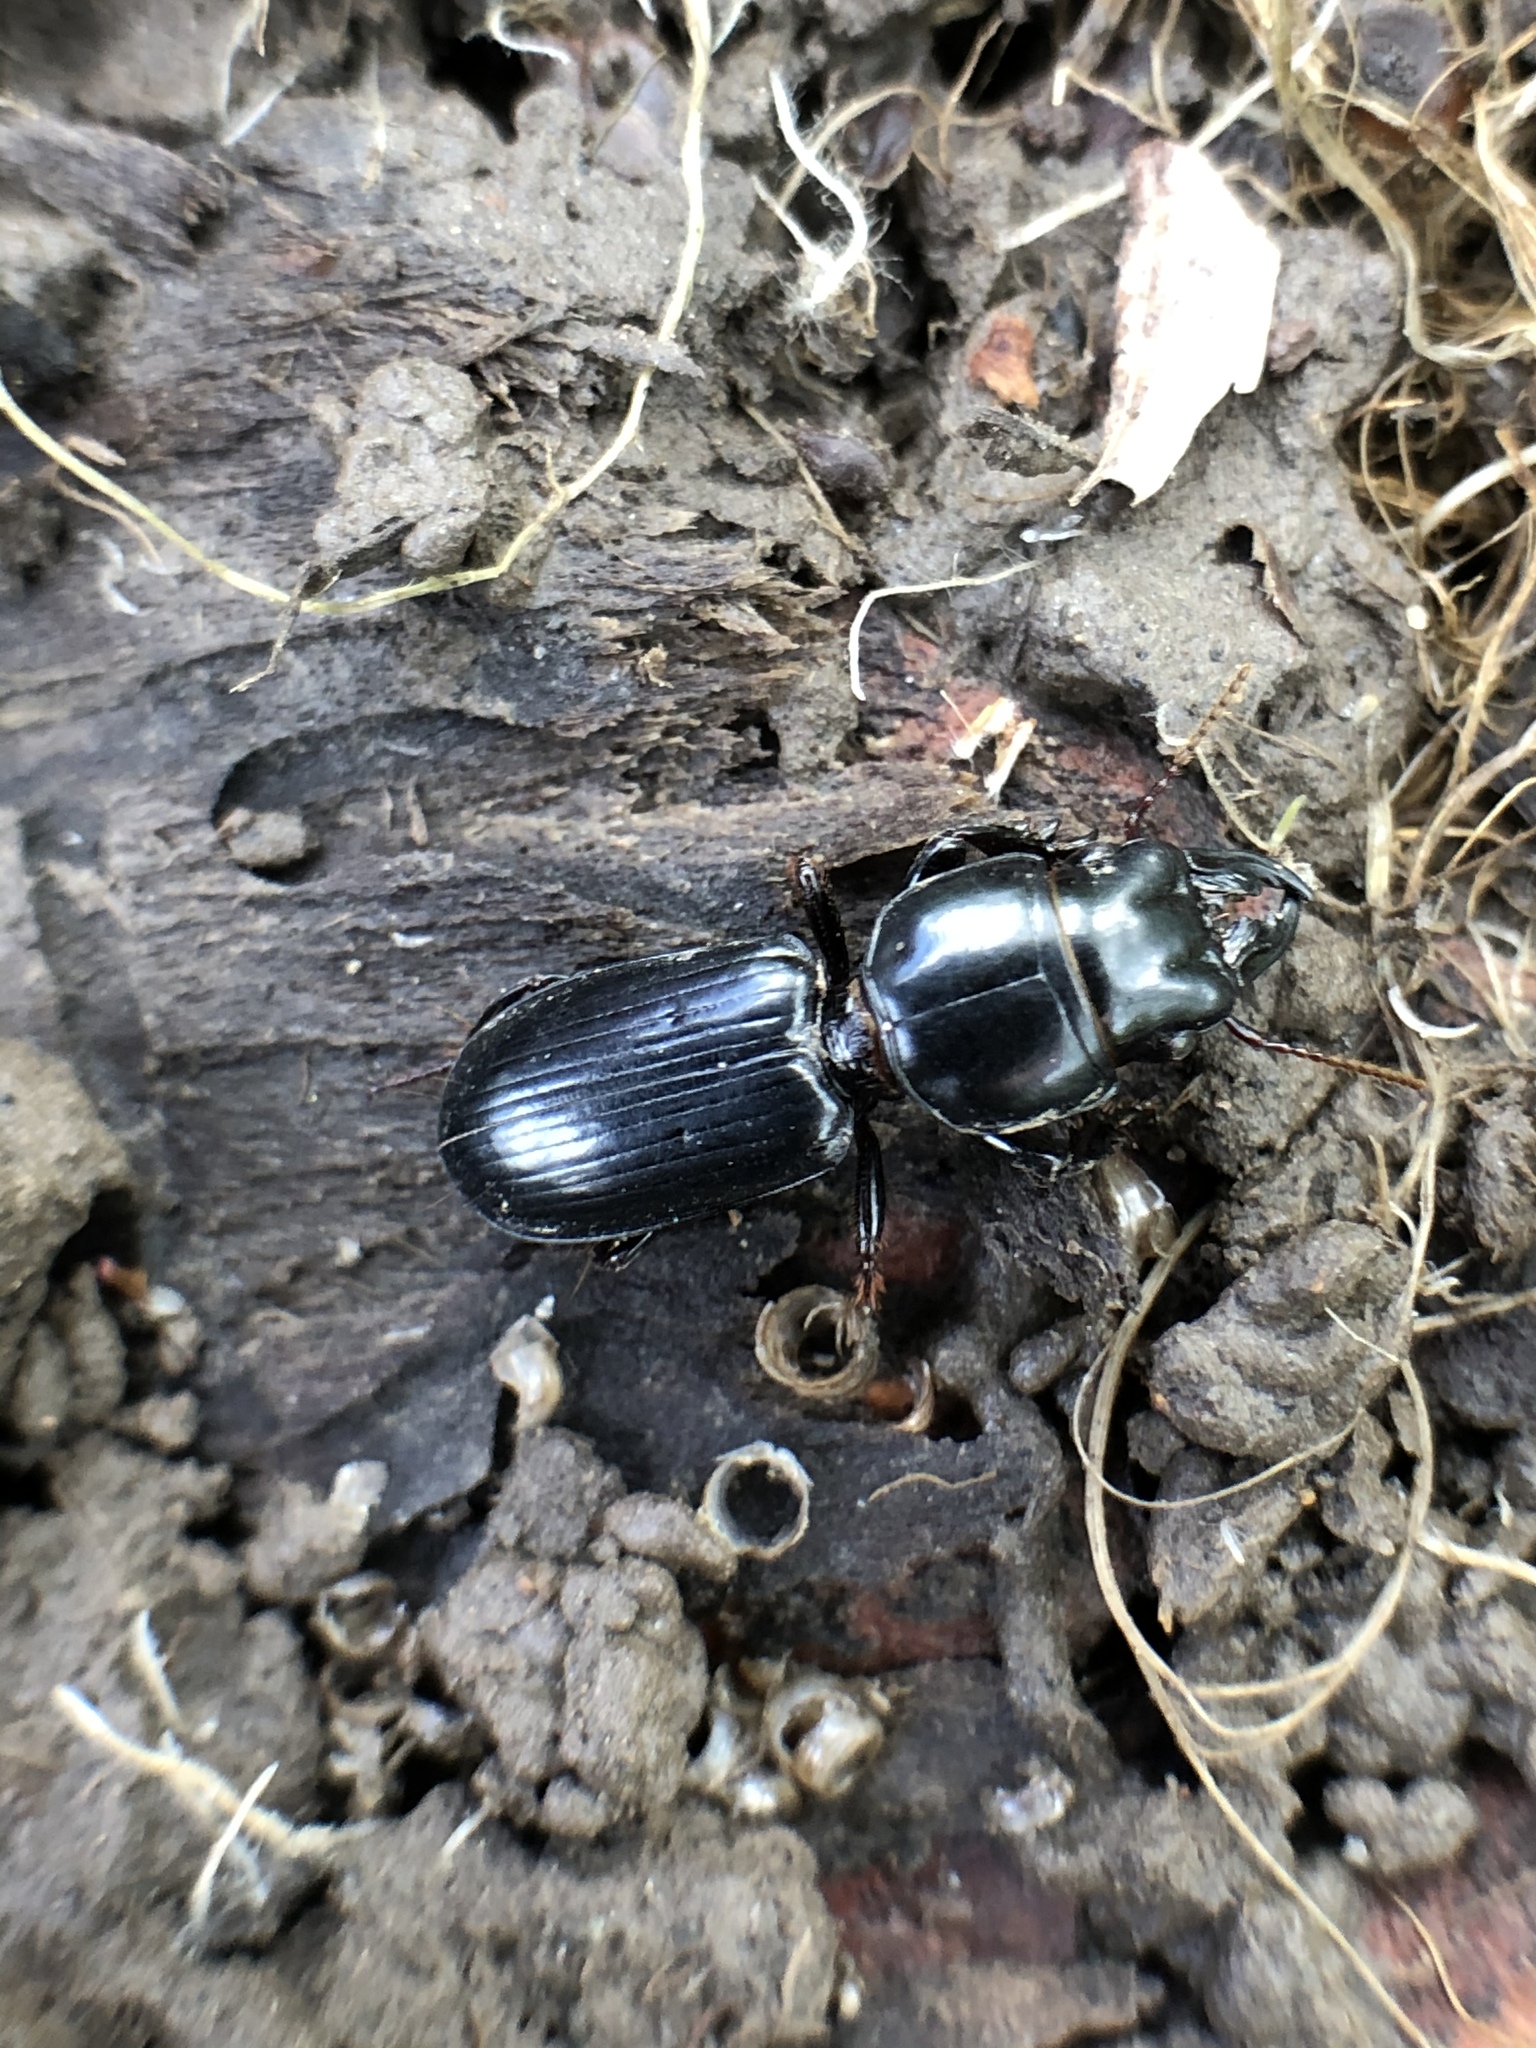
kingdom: Animalia
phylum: Arthropoda
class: Insecta
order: Coleoptera
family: Carabidae
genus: Scarites
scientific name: Scarites subterraneus
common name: Big-headed ground beetle
